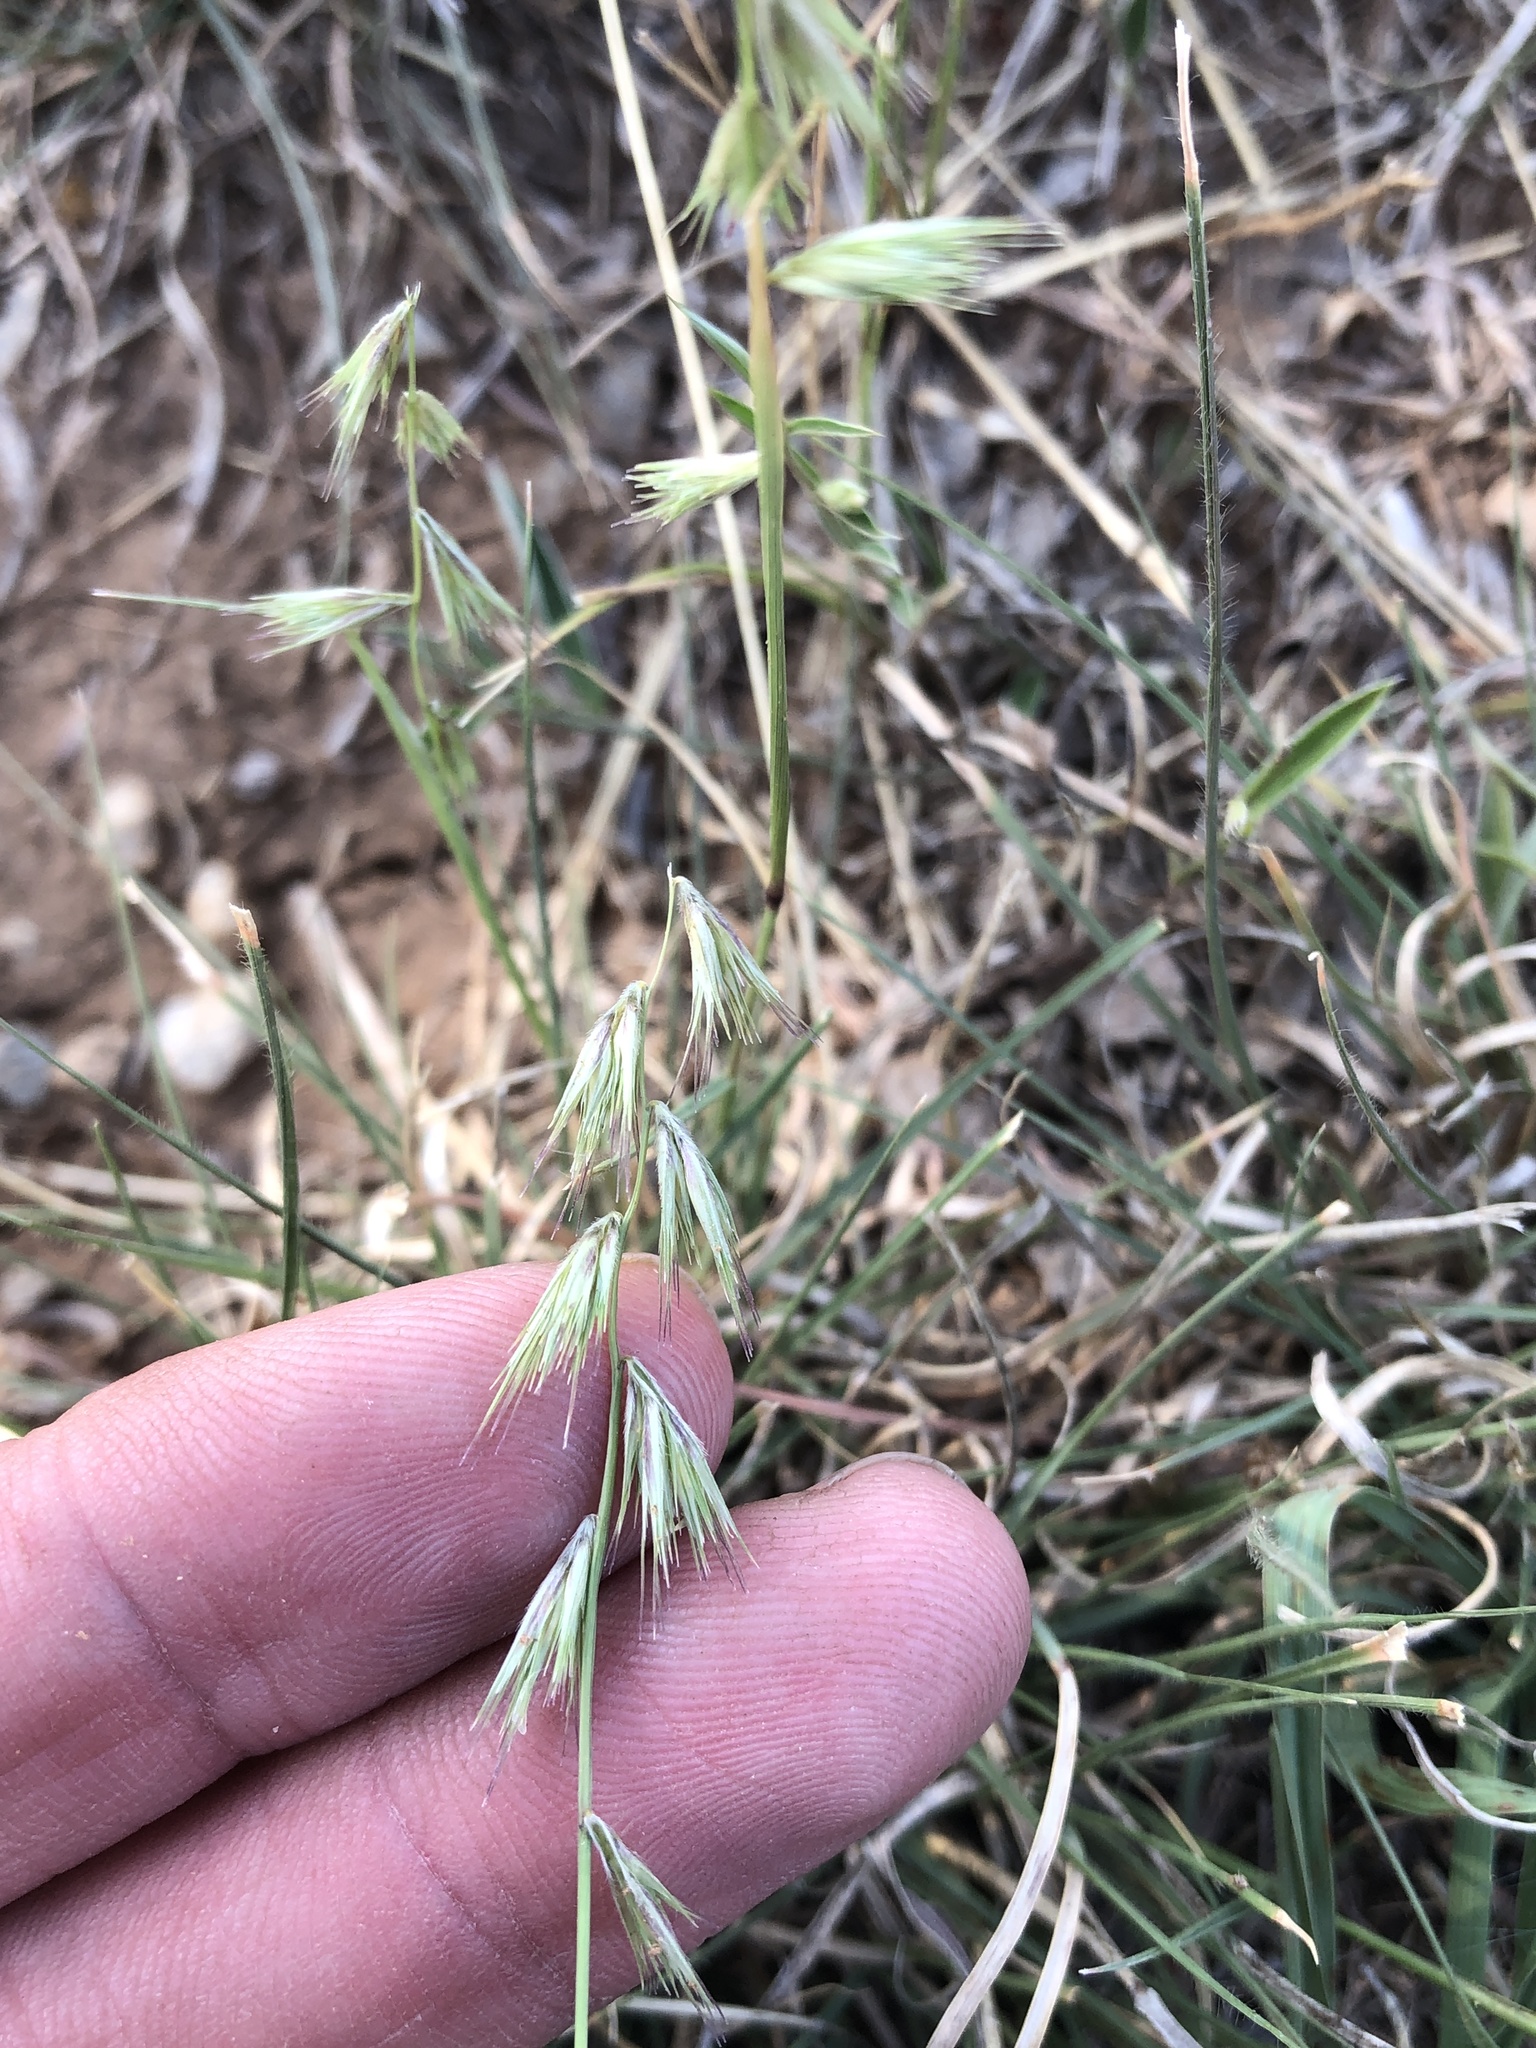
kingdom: Plantae
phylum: Tracheophyta
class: Liliopsida
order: Poales
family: Poaceae
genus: Bouteloua
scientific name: Bouteloua rigidiseta
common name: Texas grama
